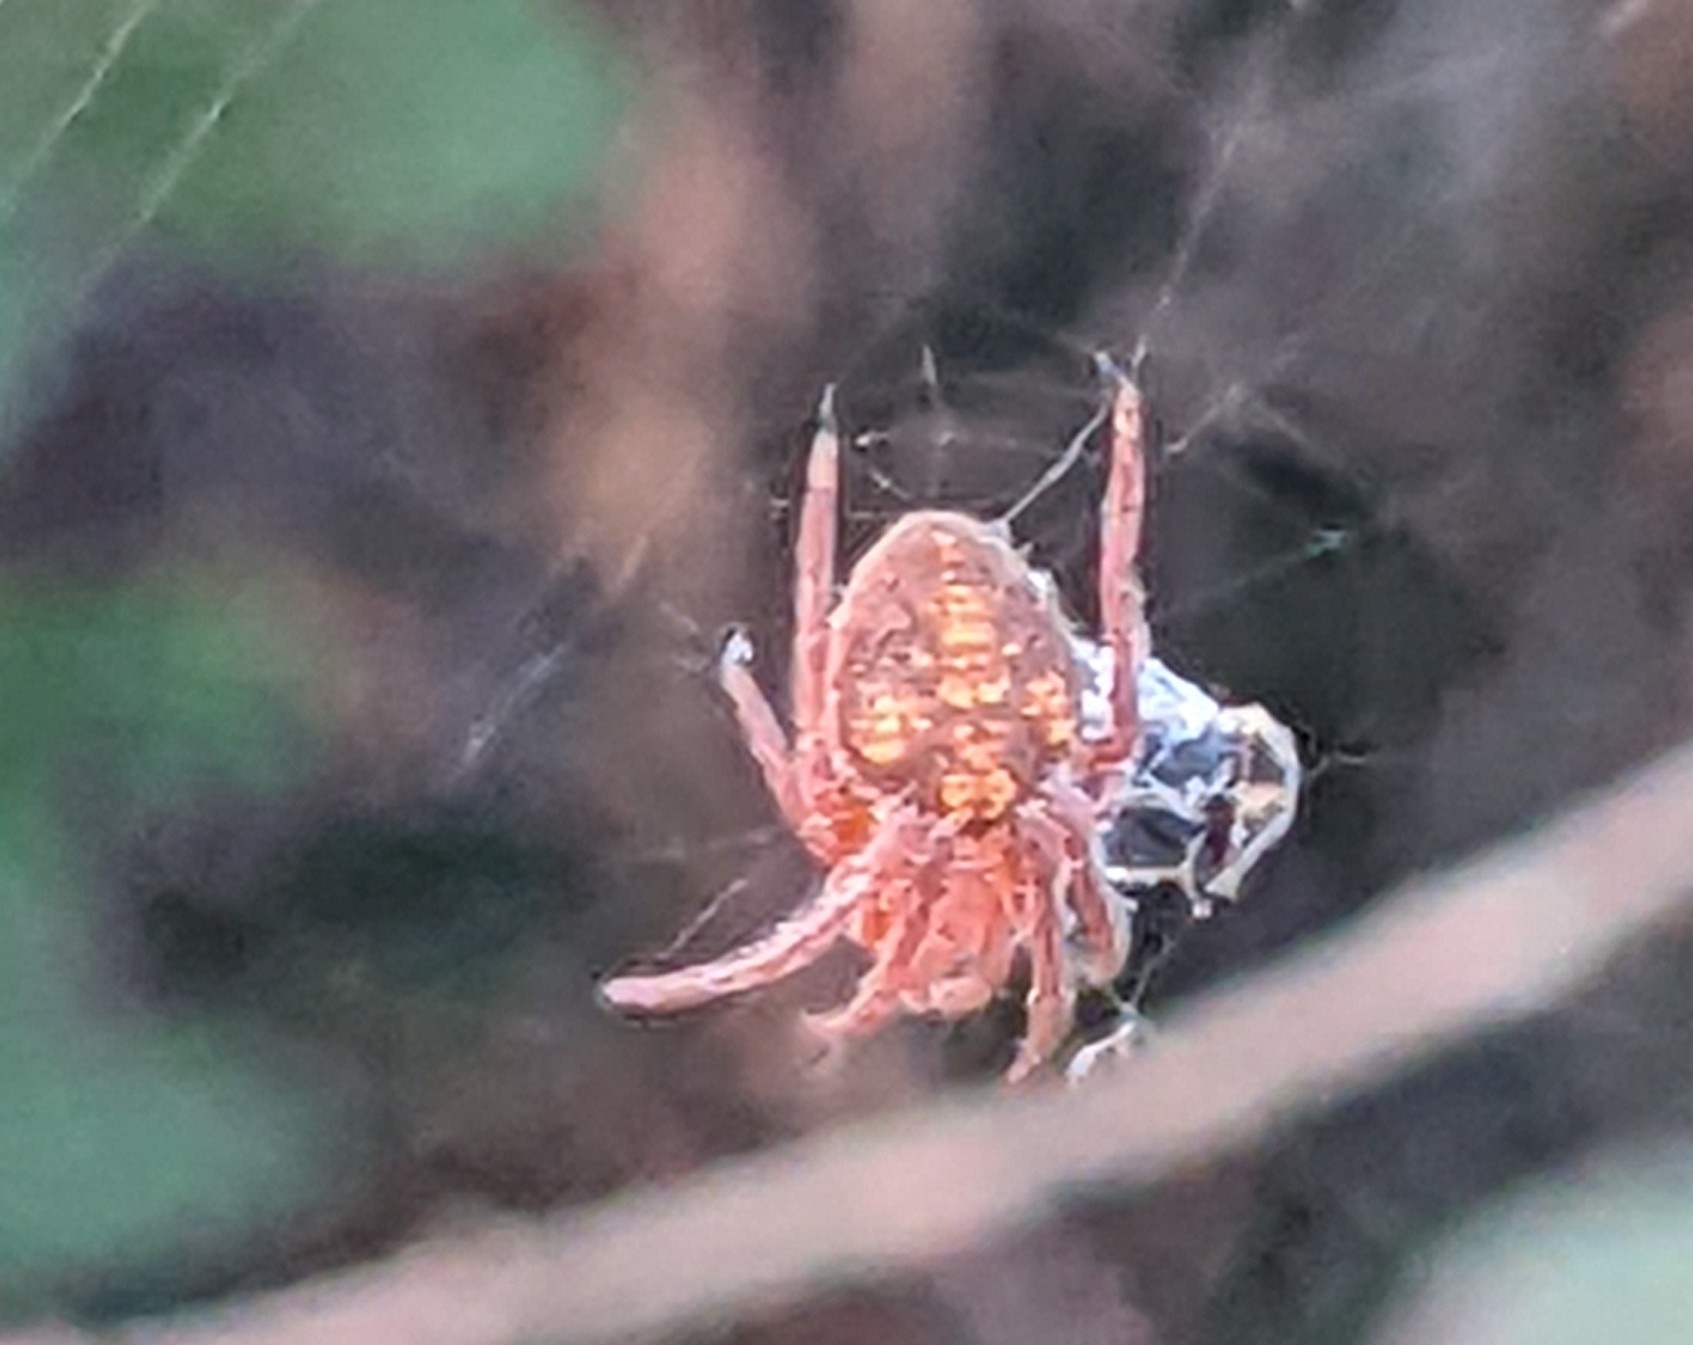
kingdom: Animalia
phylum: Arthropoda
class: Arachnida
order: Araneae
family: Araneidae
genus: Eriophora
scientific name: Eriophora ravilla
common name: Orb weavers
